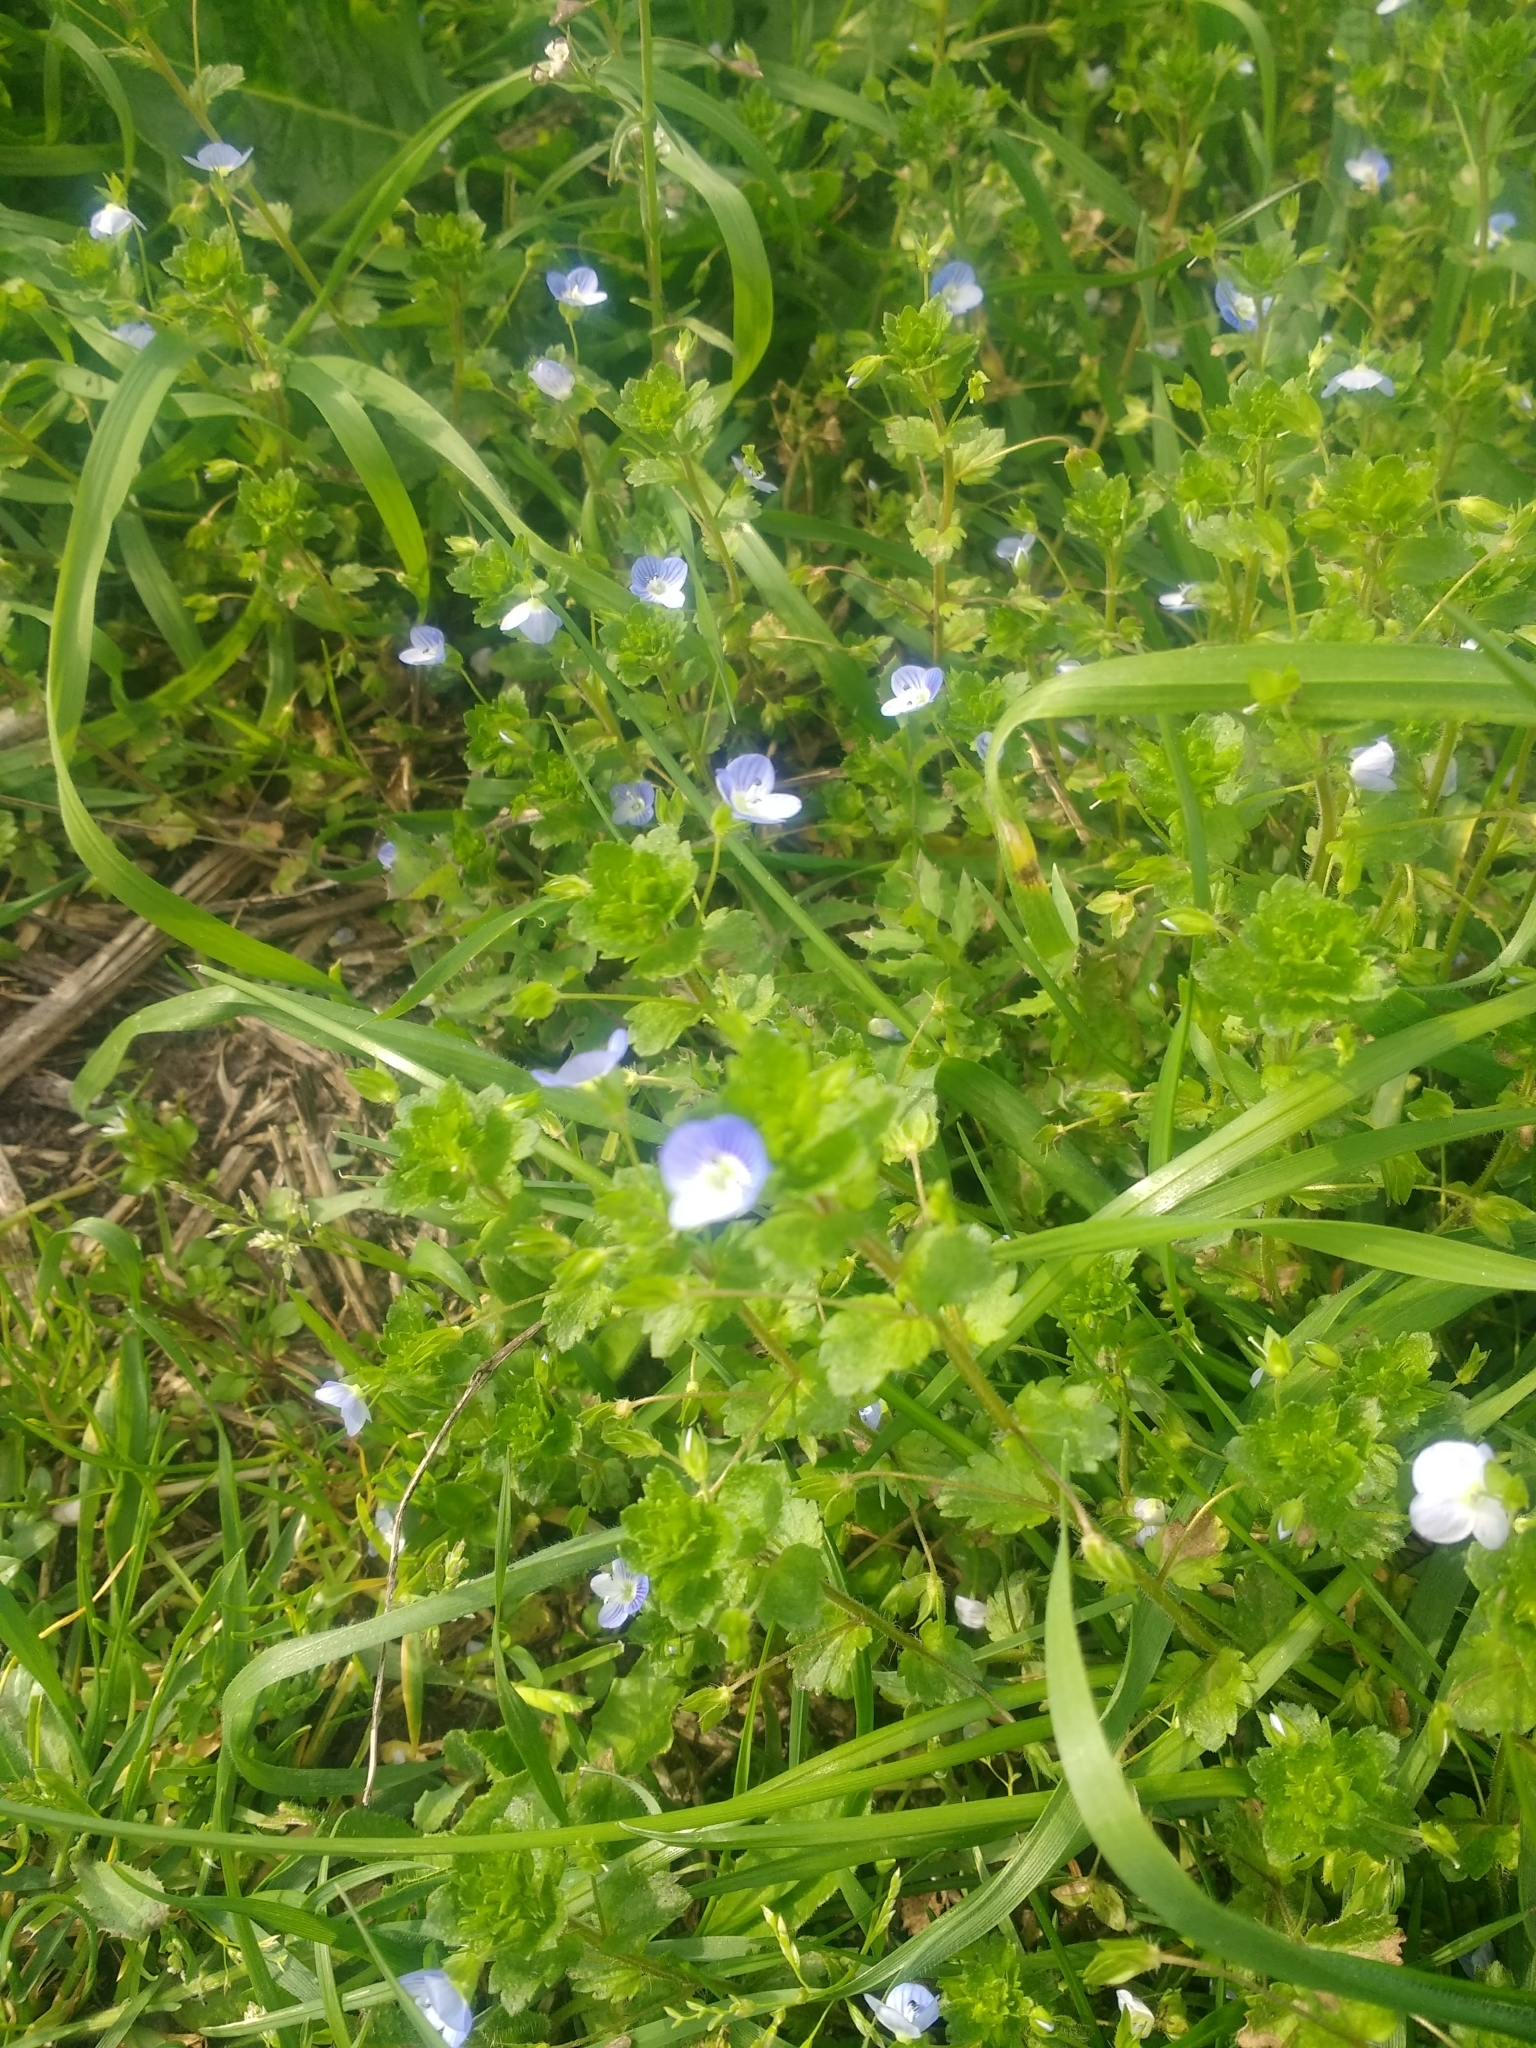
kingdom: Plantae
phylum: Tracheophyta
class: Magnoliopsida
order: Lamiales
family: Plantaginaceae
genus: Veronica
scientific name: Veronica persica
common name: Common field-speedwell
